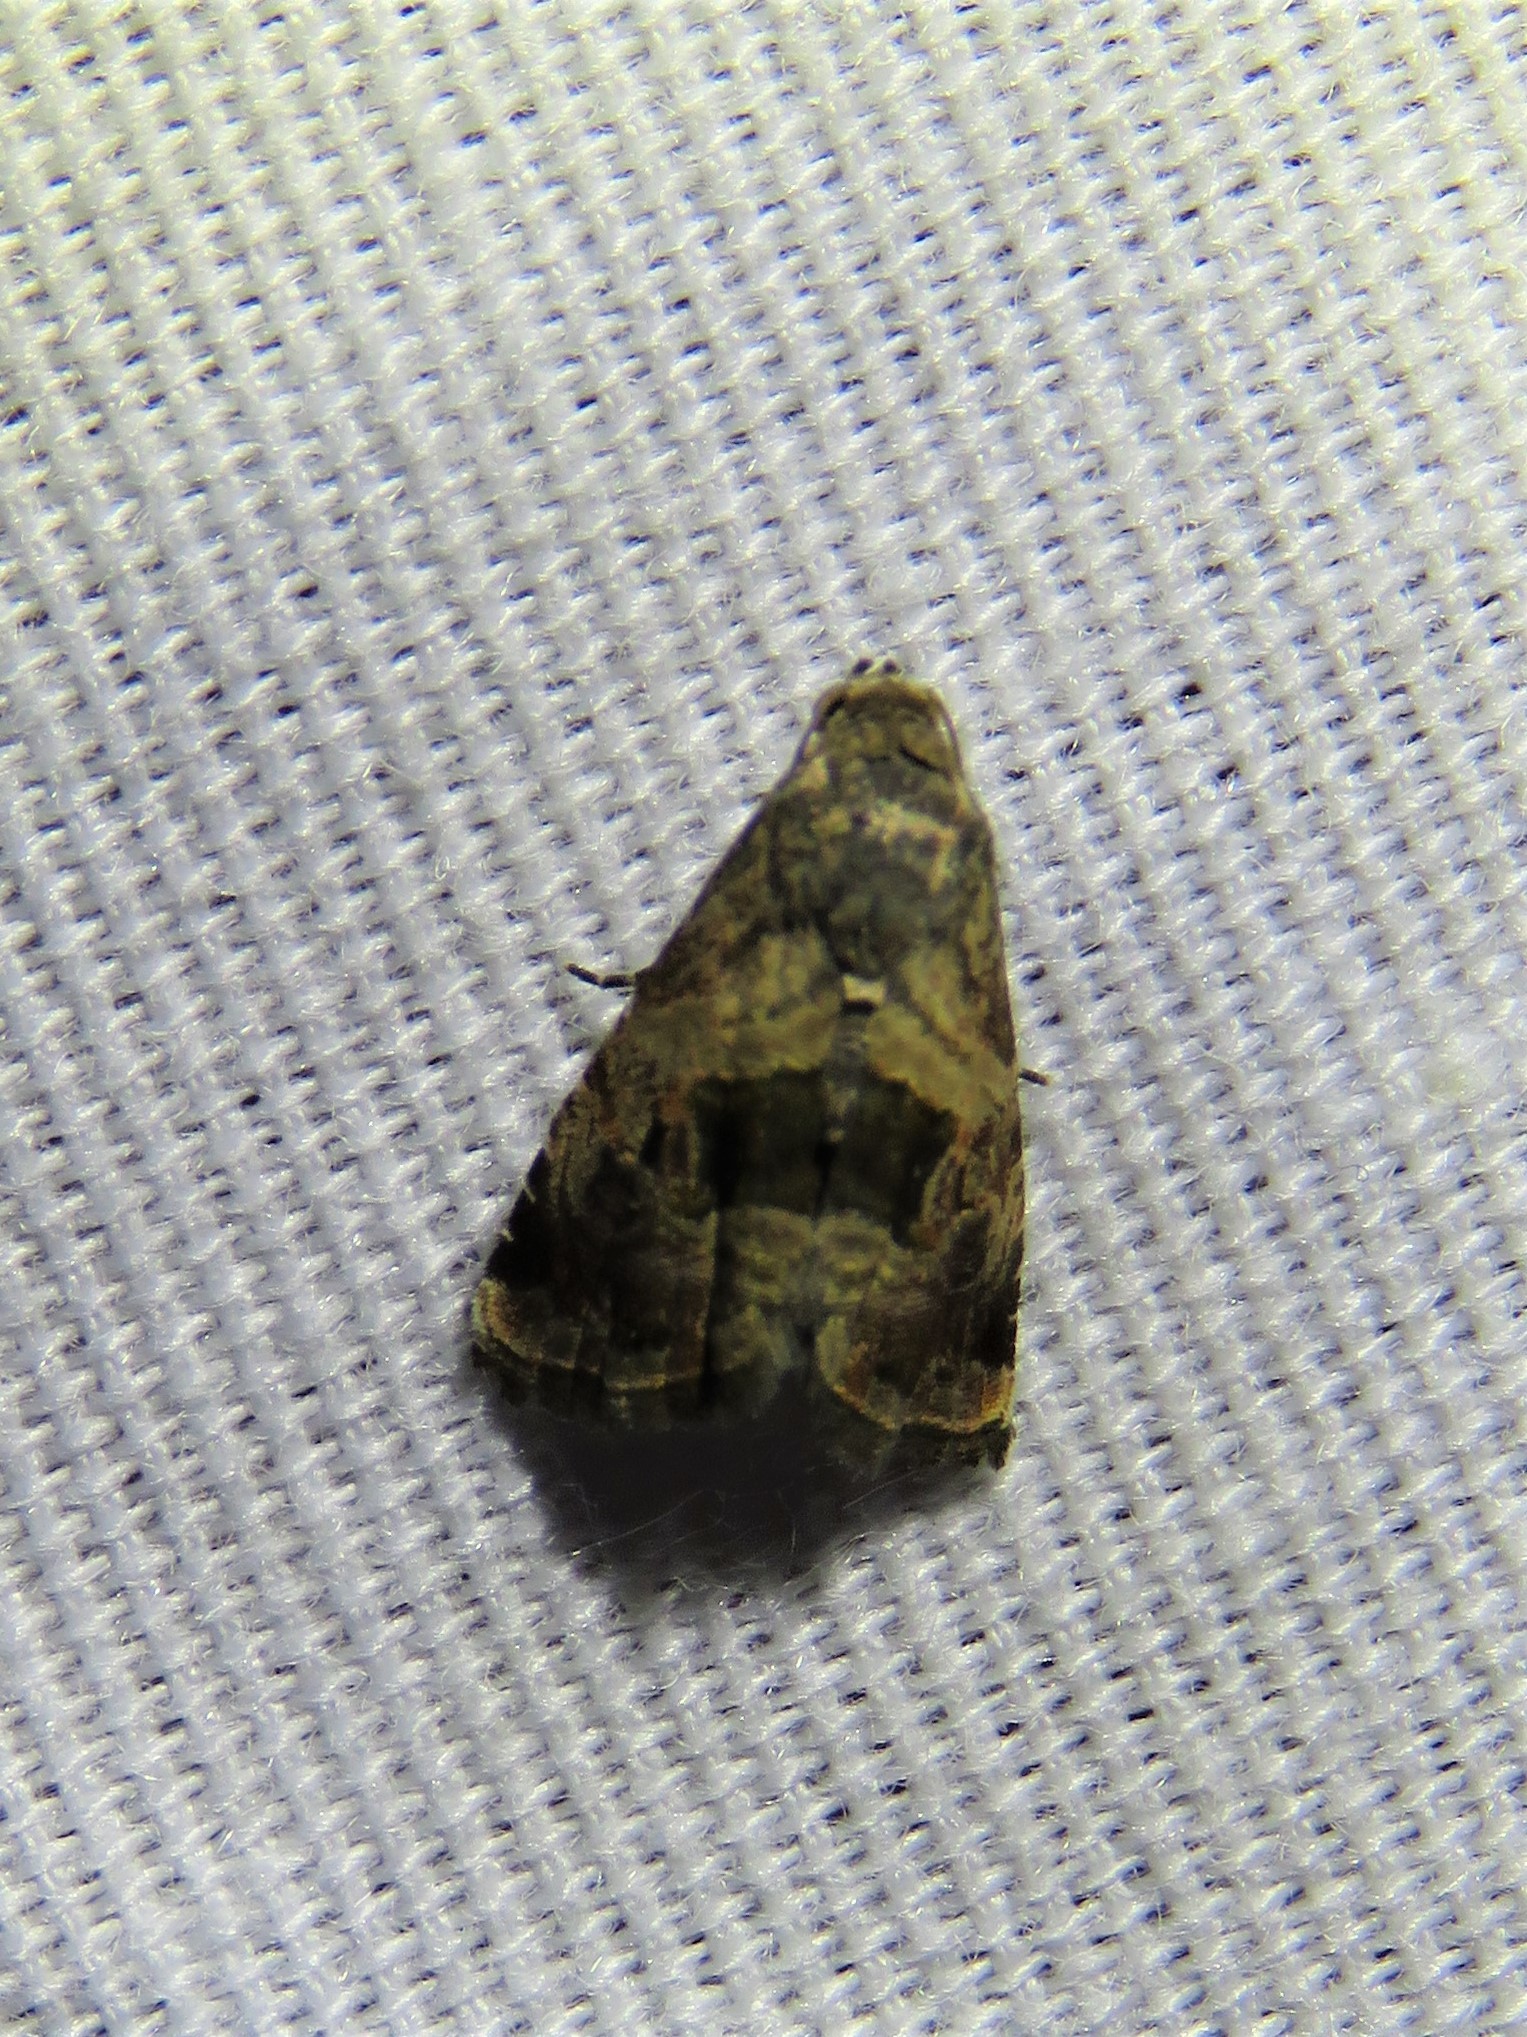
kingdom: Animalia
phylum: Arthropoda
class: Insecta
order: Lepidoptera
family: Noctuidae
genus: Tripudia
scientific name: Tripudia quadrifera
